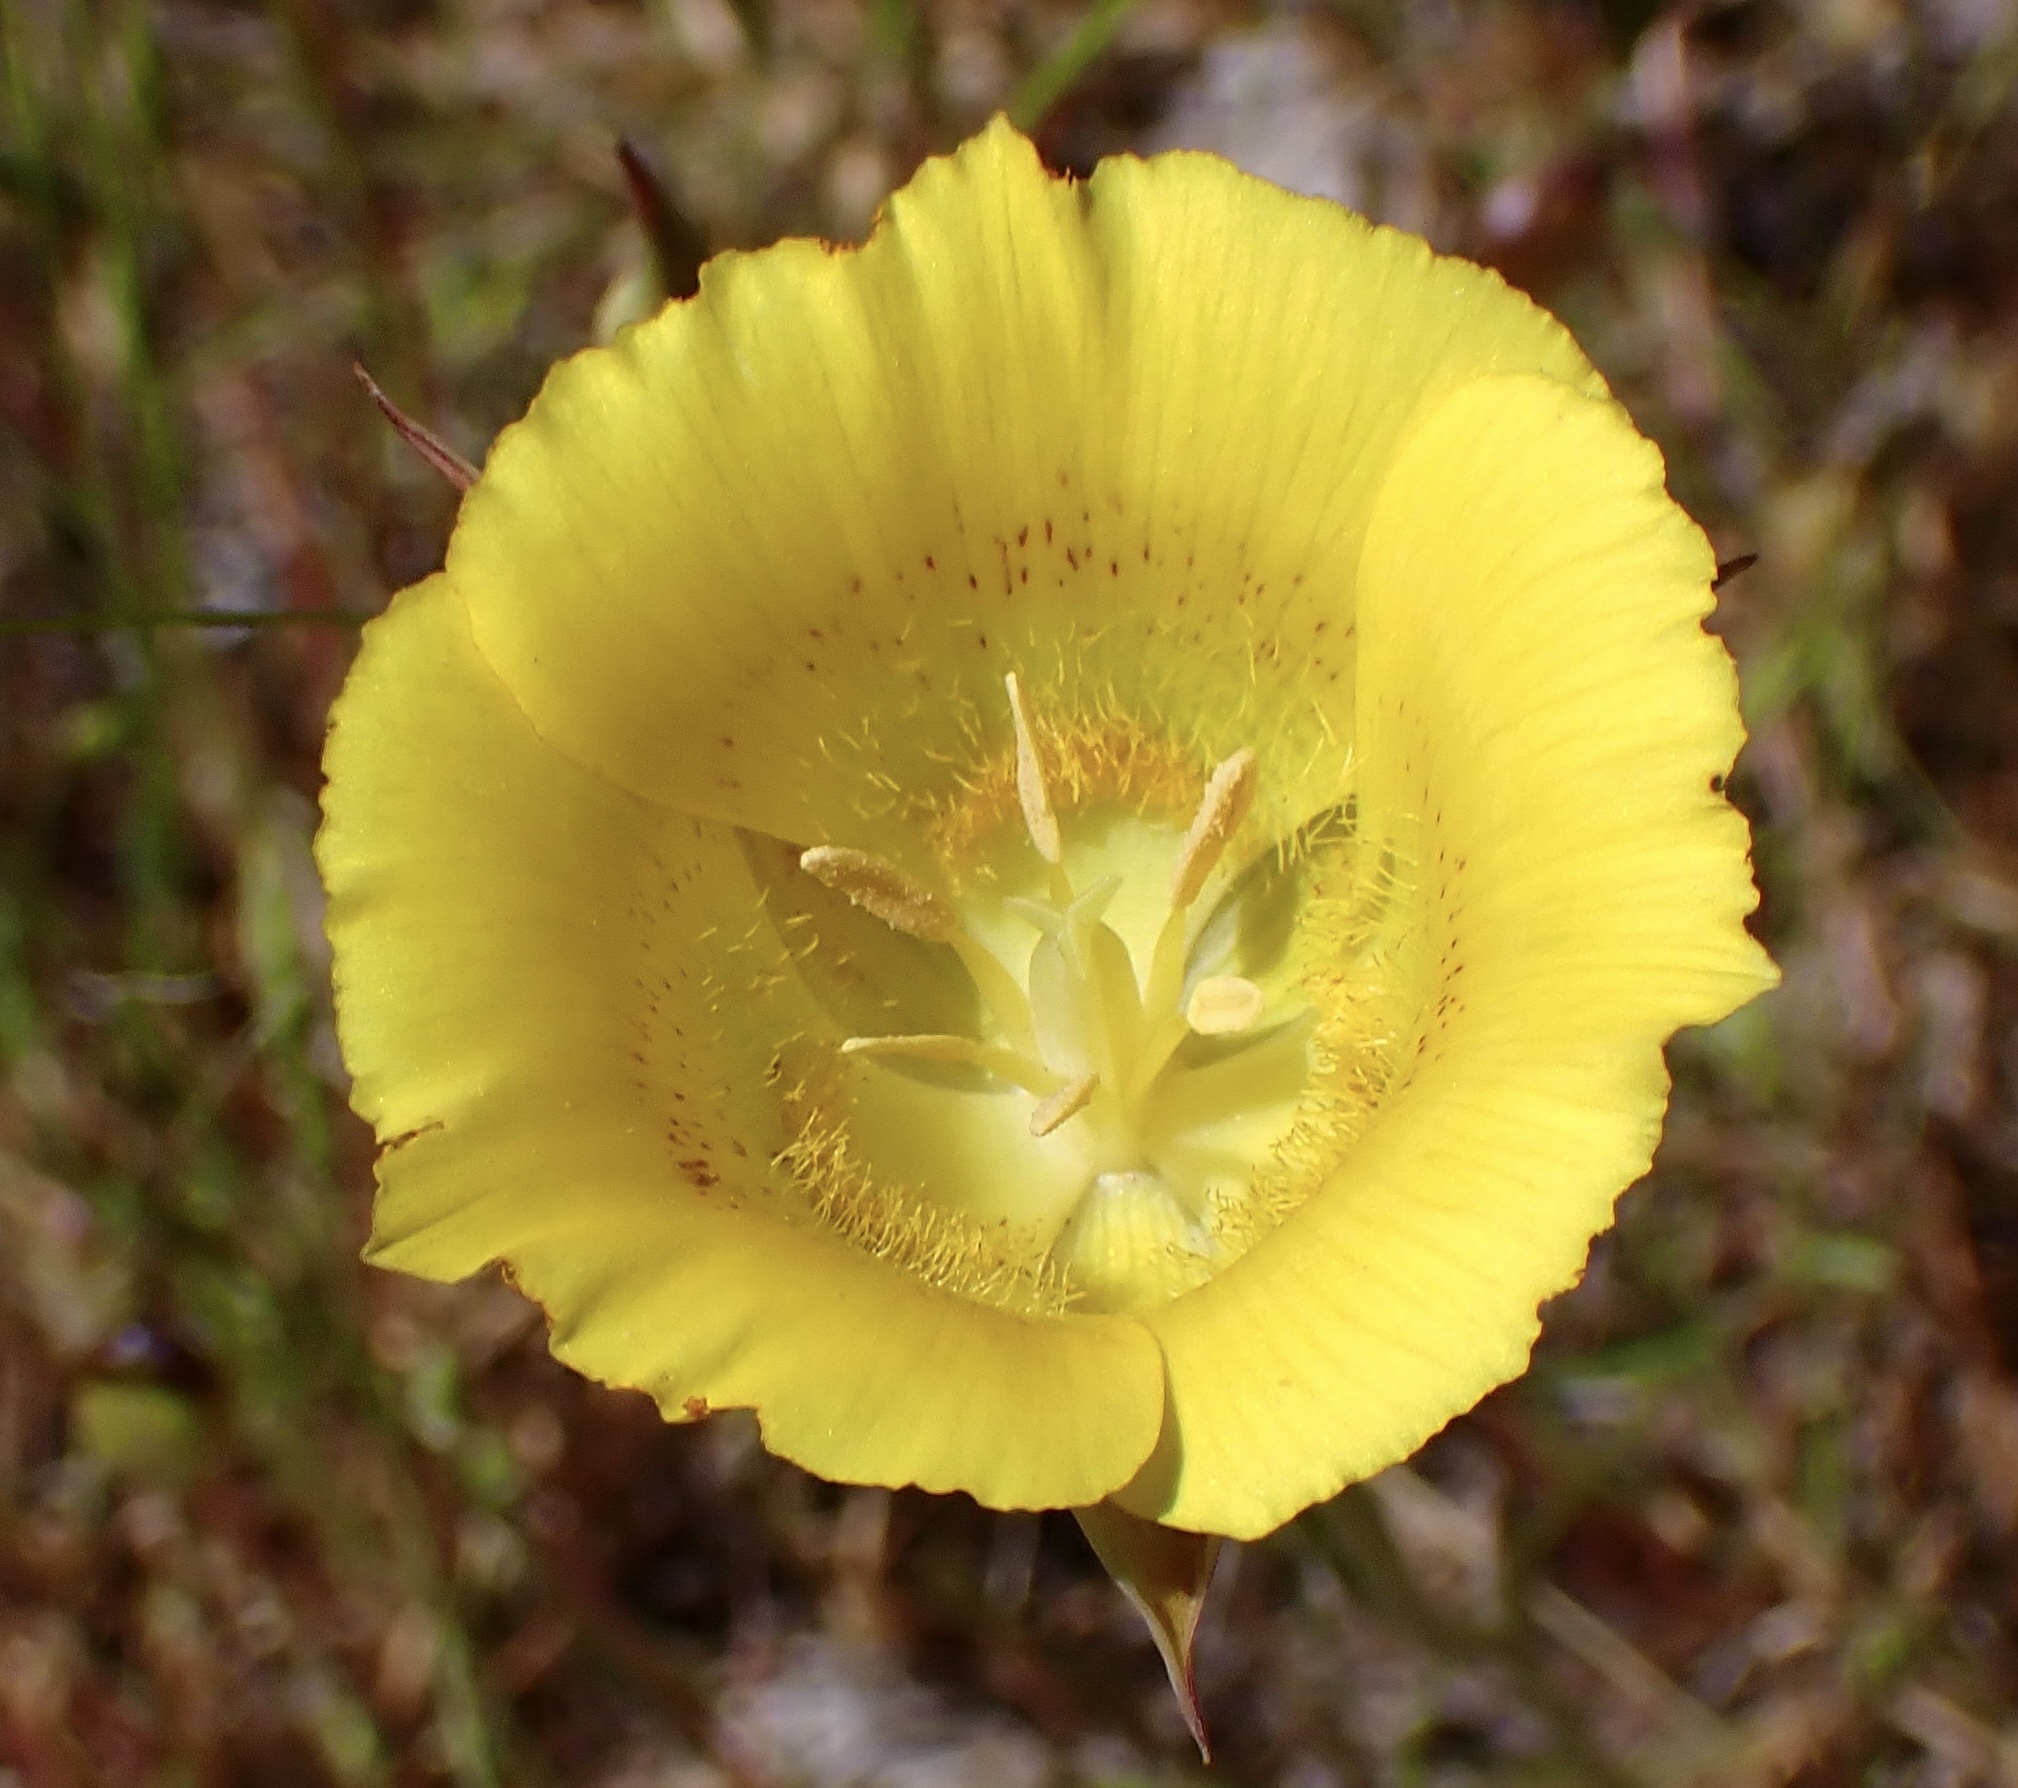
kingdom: Plantae
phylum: Tracheophyta
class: Liliopsida
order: Liliales
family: Liliaceae
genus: Calochortus
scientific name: Calochortus luteus
